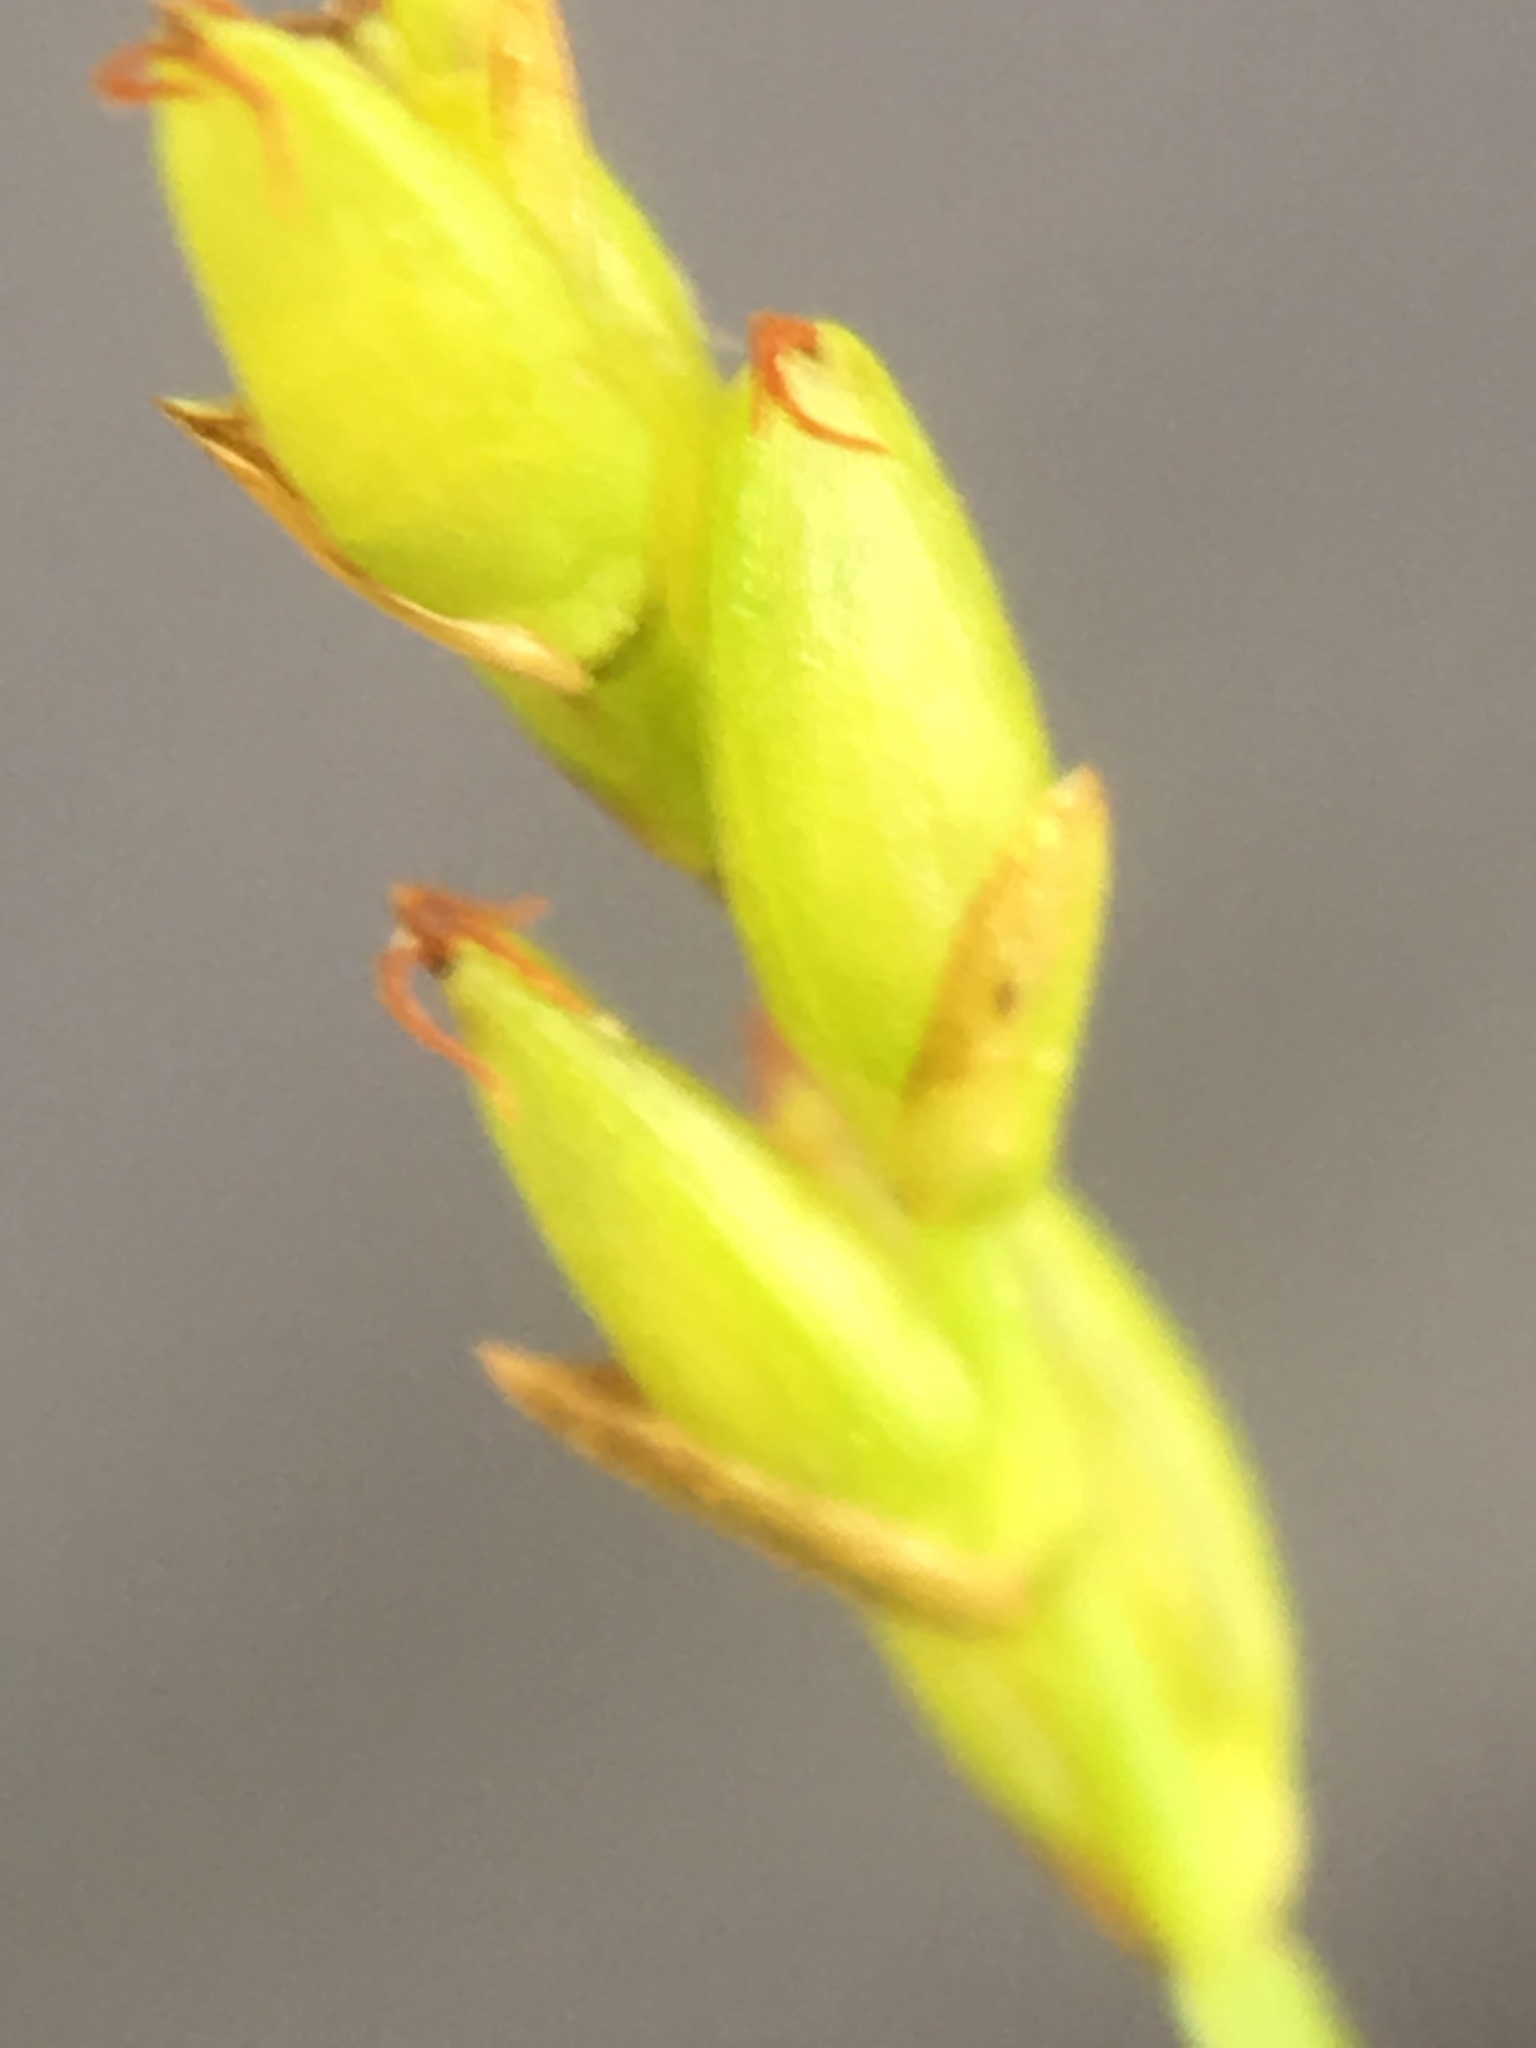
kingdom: Plantae
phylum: Tracheophyta
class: Liliopsida
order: Poales
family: Cyperaceae
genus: Carex
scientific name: Carex leptalea
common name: Bristly-stalked sedge
